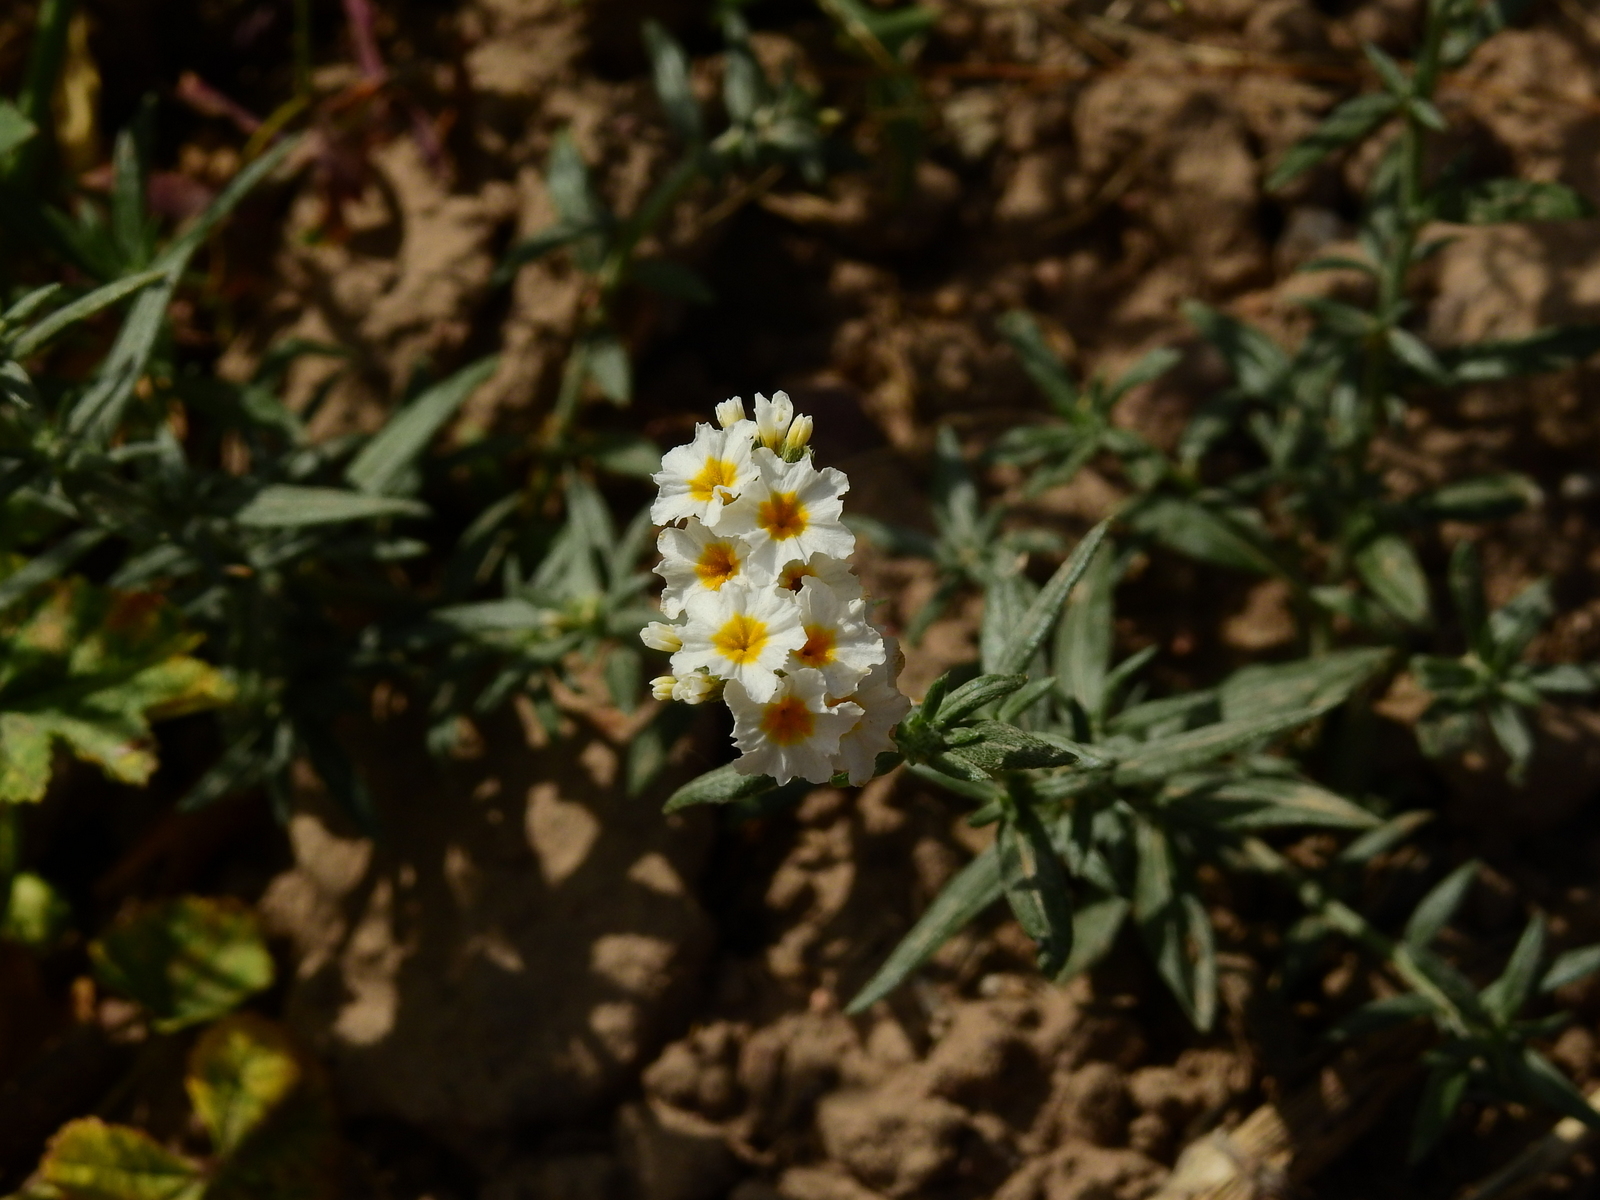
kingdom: Plantae
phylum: Tracheophyta
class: Magnoliopsida
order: Boraginales
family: Heliotropiaceae
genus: Euploca
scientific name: Euploca mendocina
